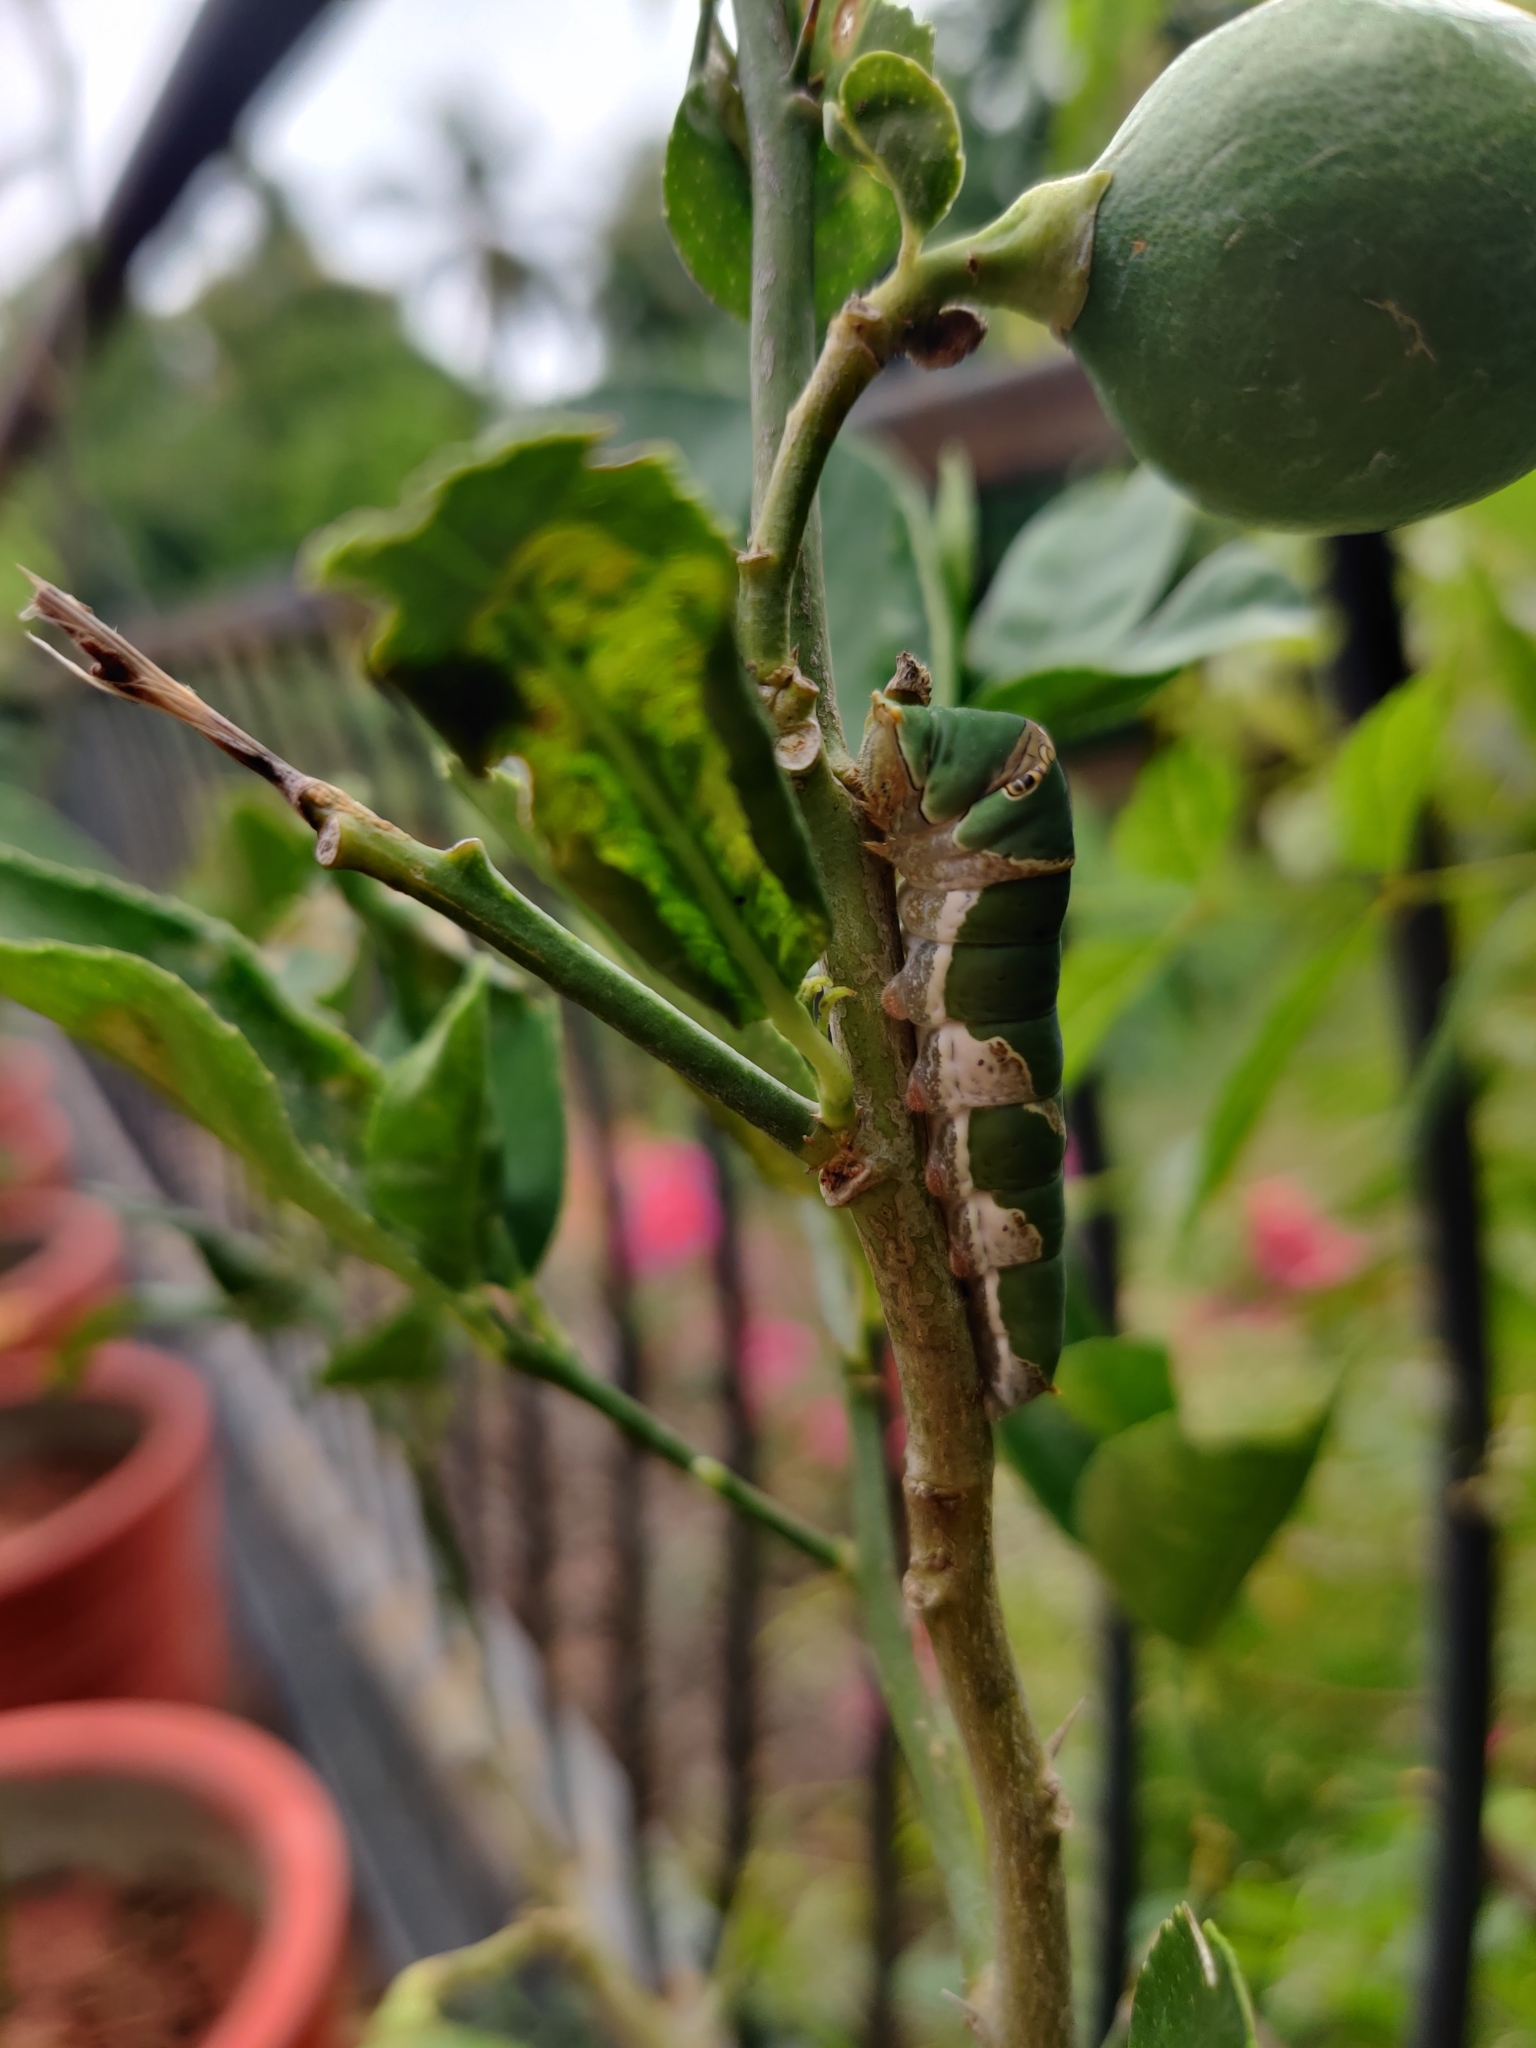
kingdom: Animalia
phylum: Arthropoda
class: Insecta
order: Lepidoptera
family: Papilionidae
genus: Papilio
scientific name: Papilio demoleus
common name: Lime butterfly
